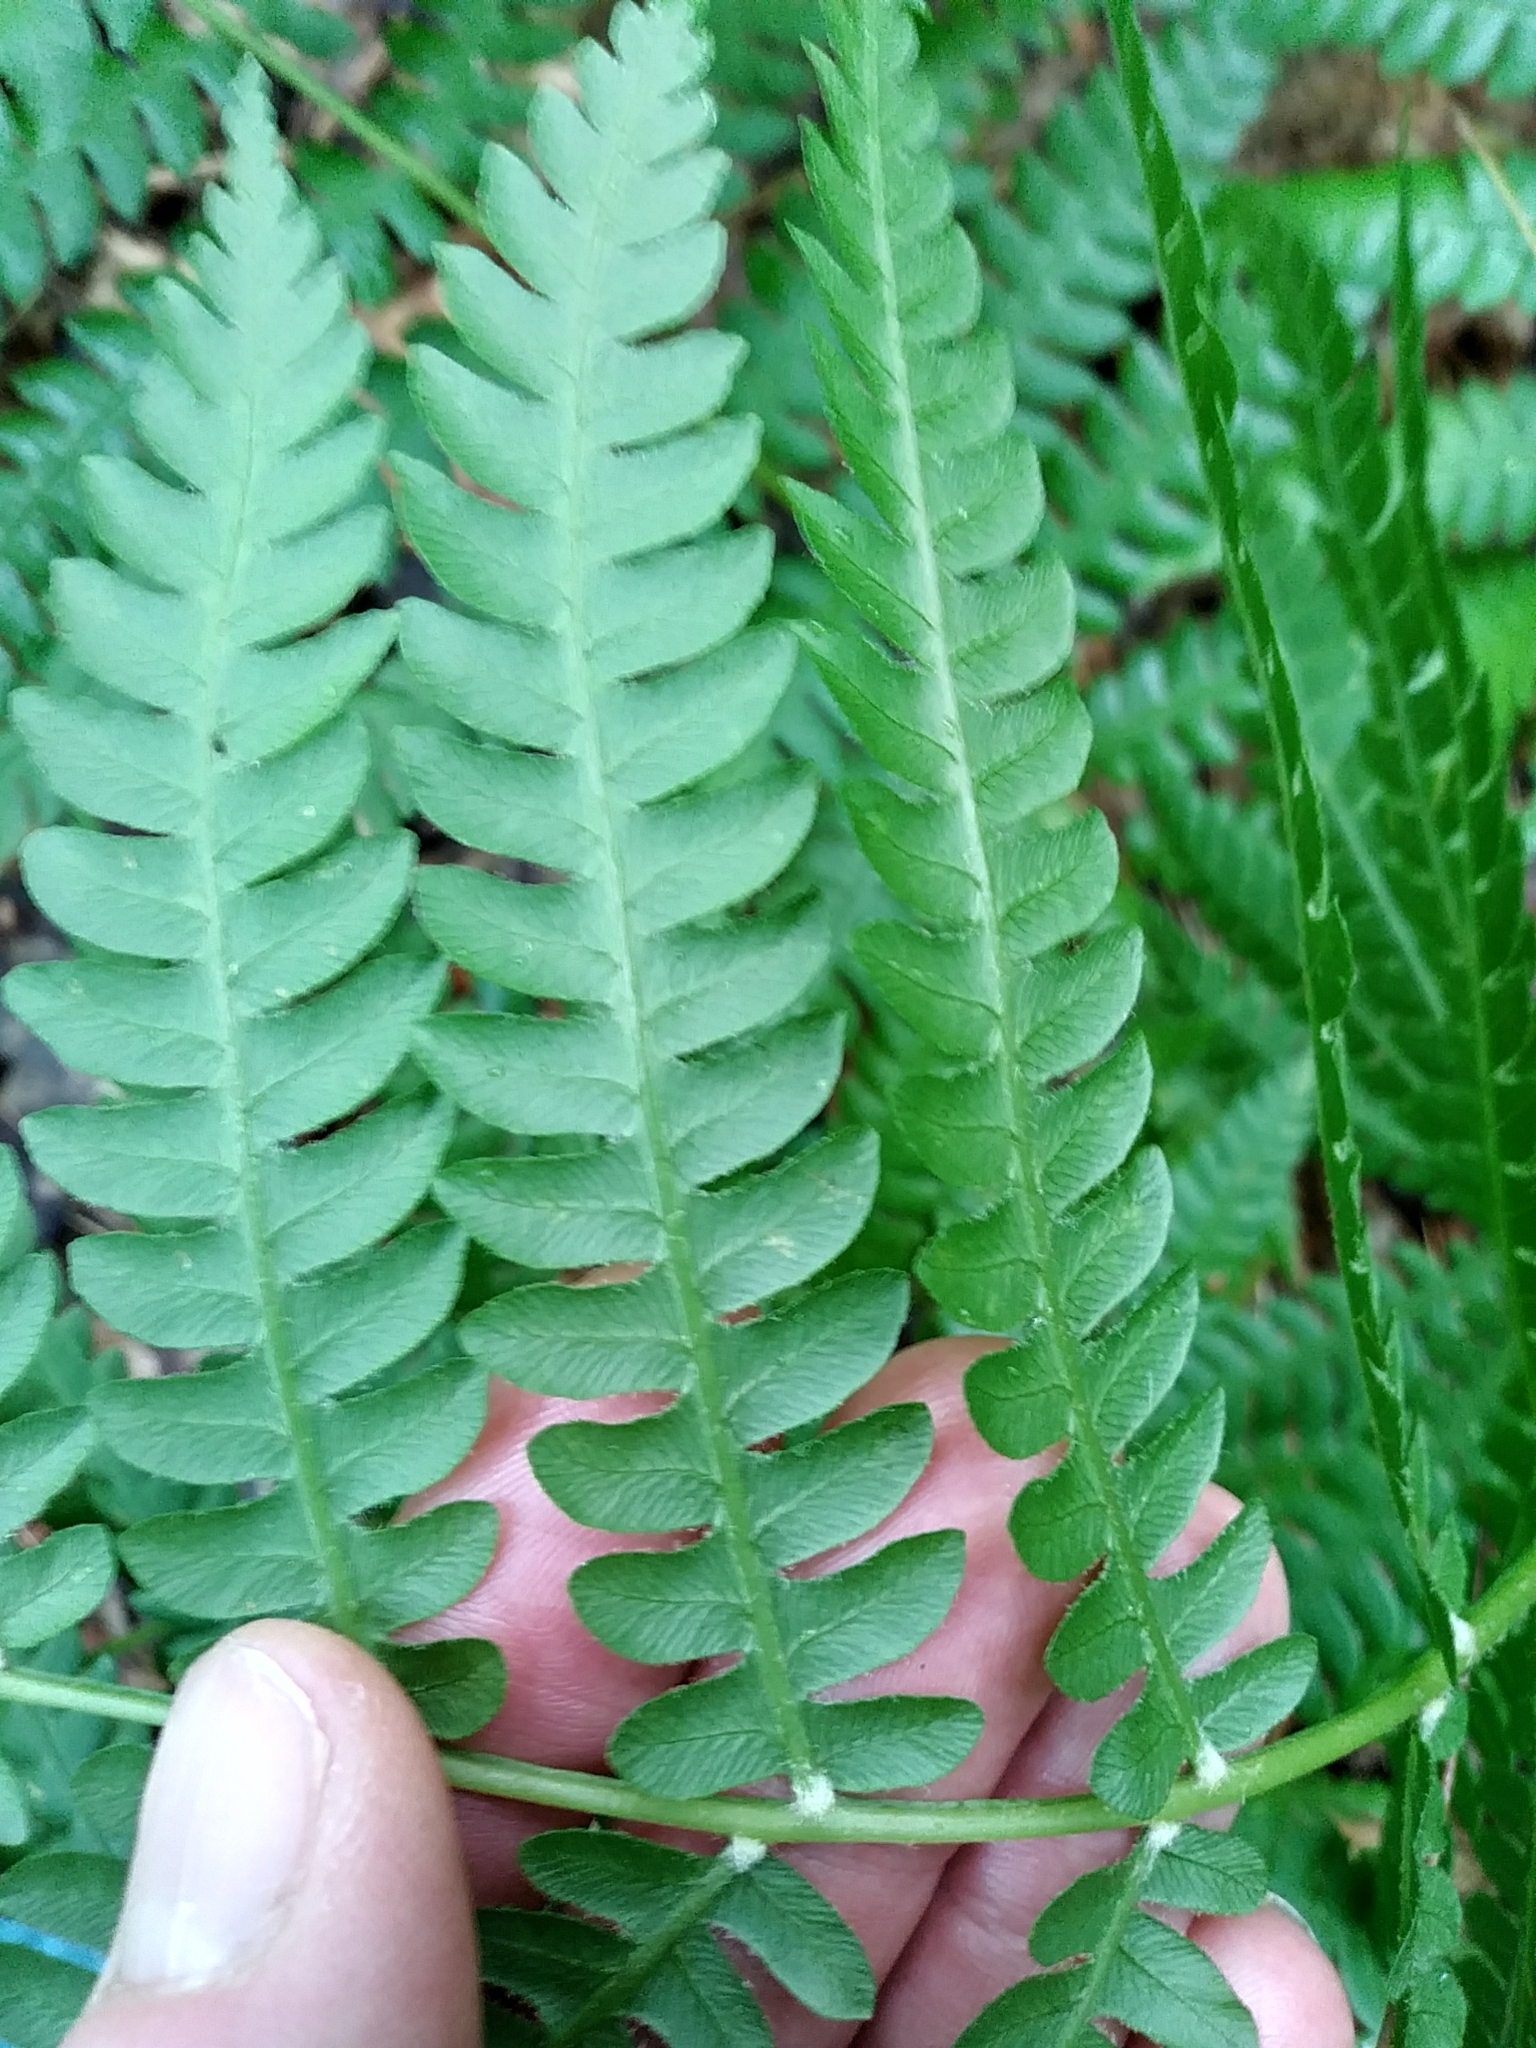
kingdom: Plantae
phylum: Tracheophyta
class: Polypodiopsida
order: Osmundales
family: Osmundaceae
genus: Osmundastrum
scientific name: Osmundastrum cinnamomeum
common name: Cinnamon fern
